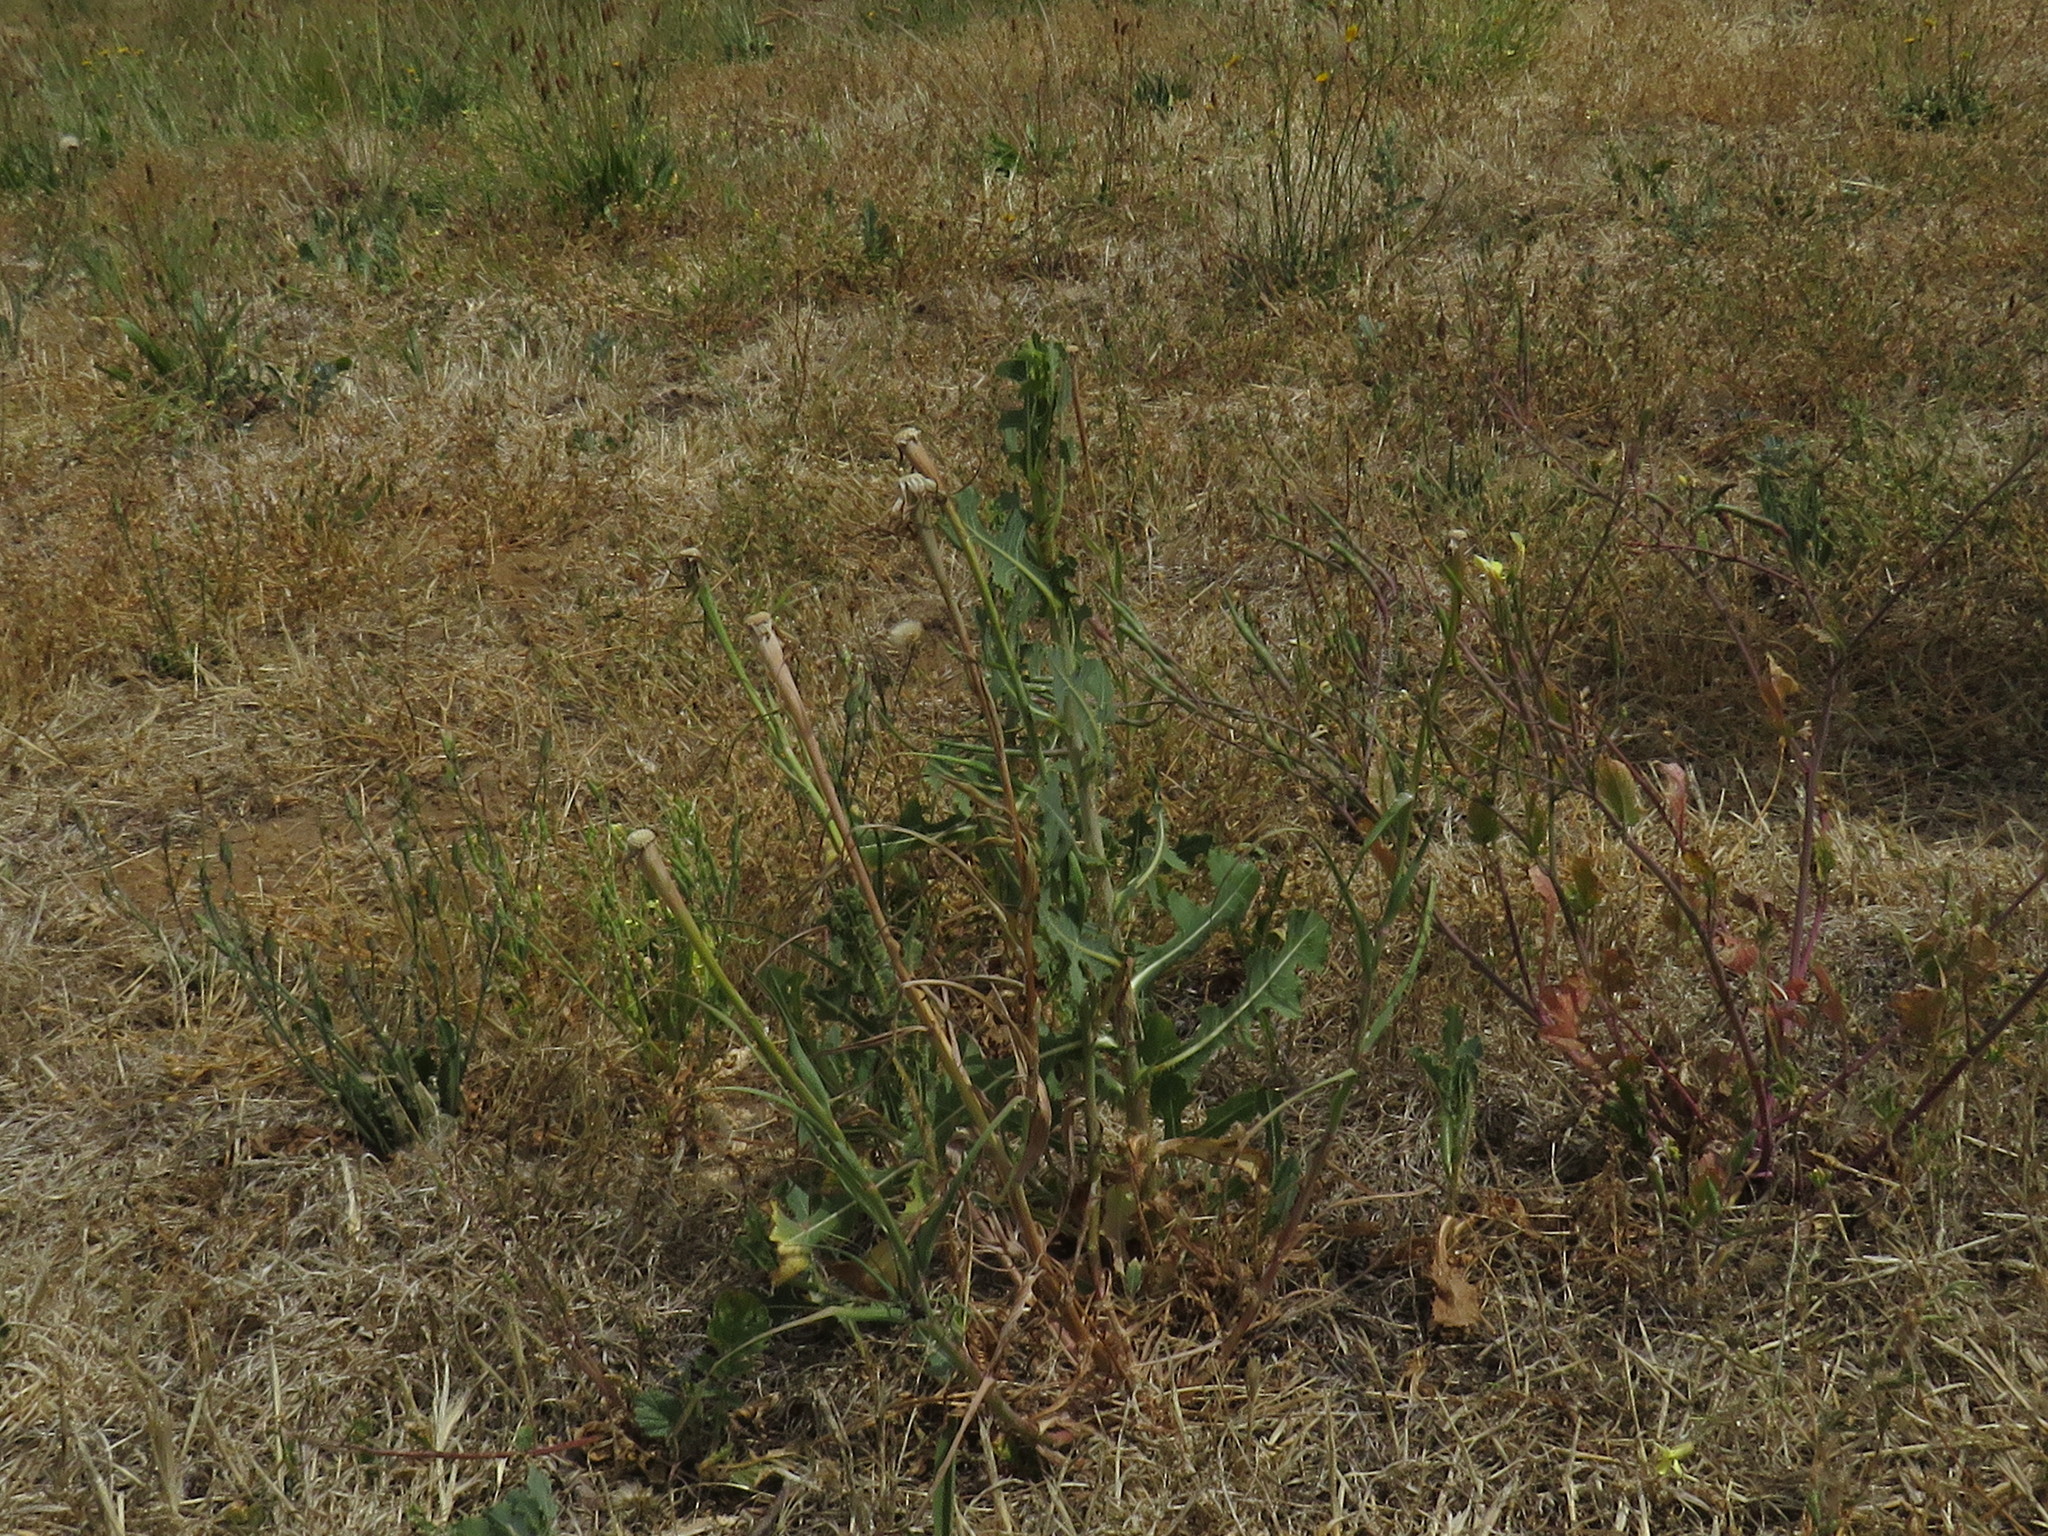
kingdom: Plantae
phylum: Tracheophyta
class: Magnoliopsida
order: Asterales
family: Asteraceae
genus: Lactuca
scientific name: Lactuca serriola
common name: Prickly lettuce
